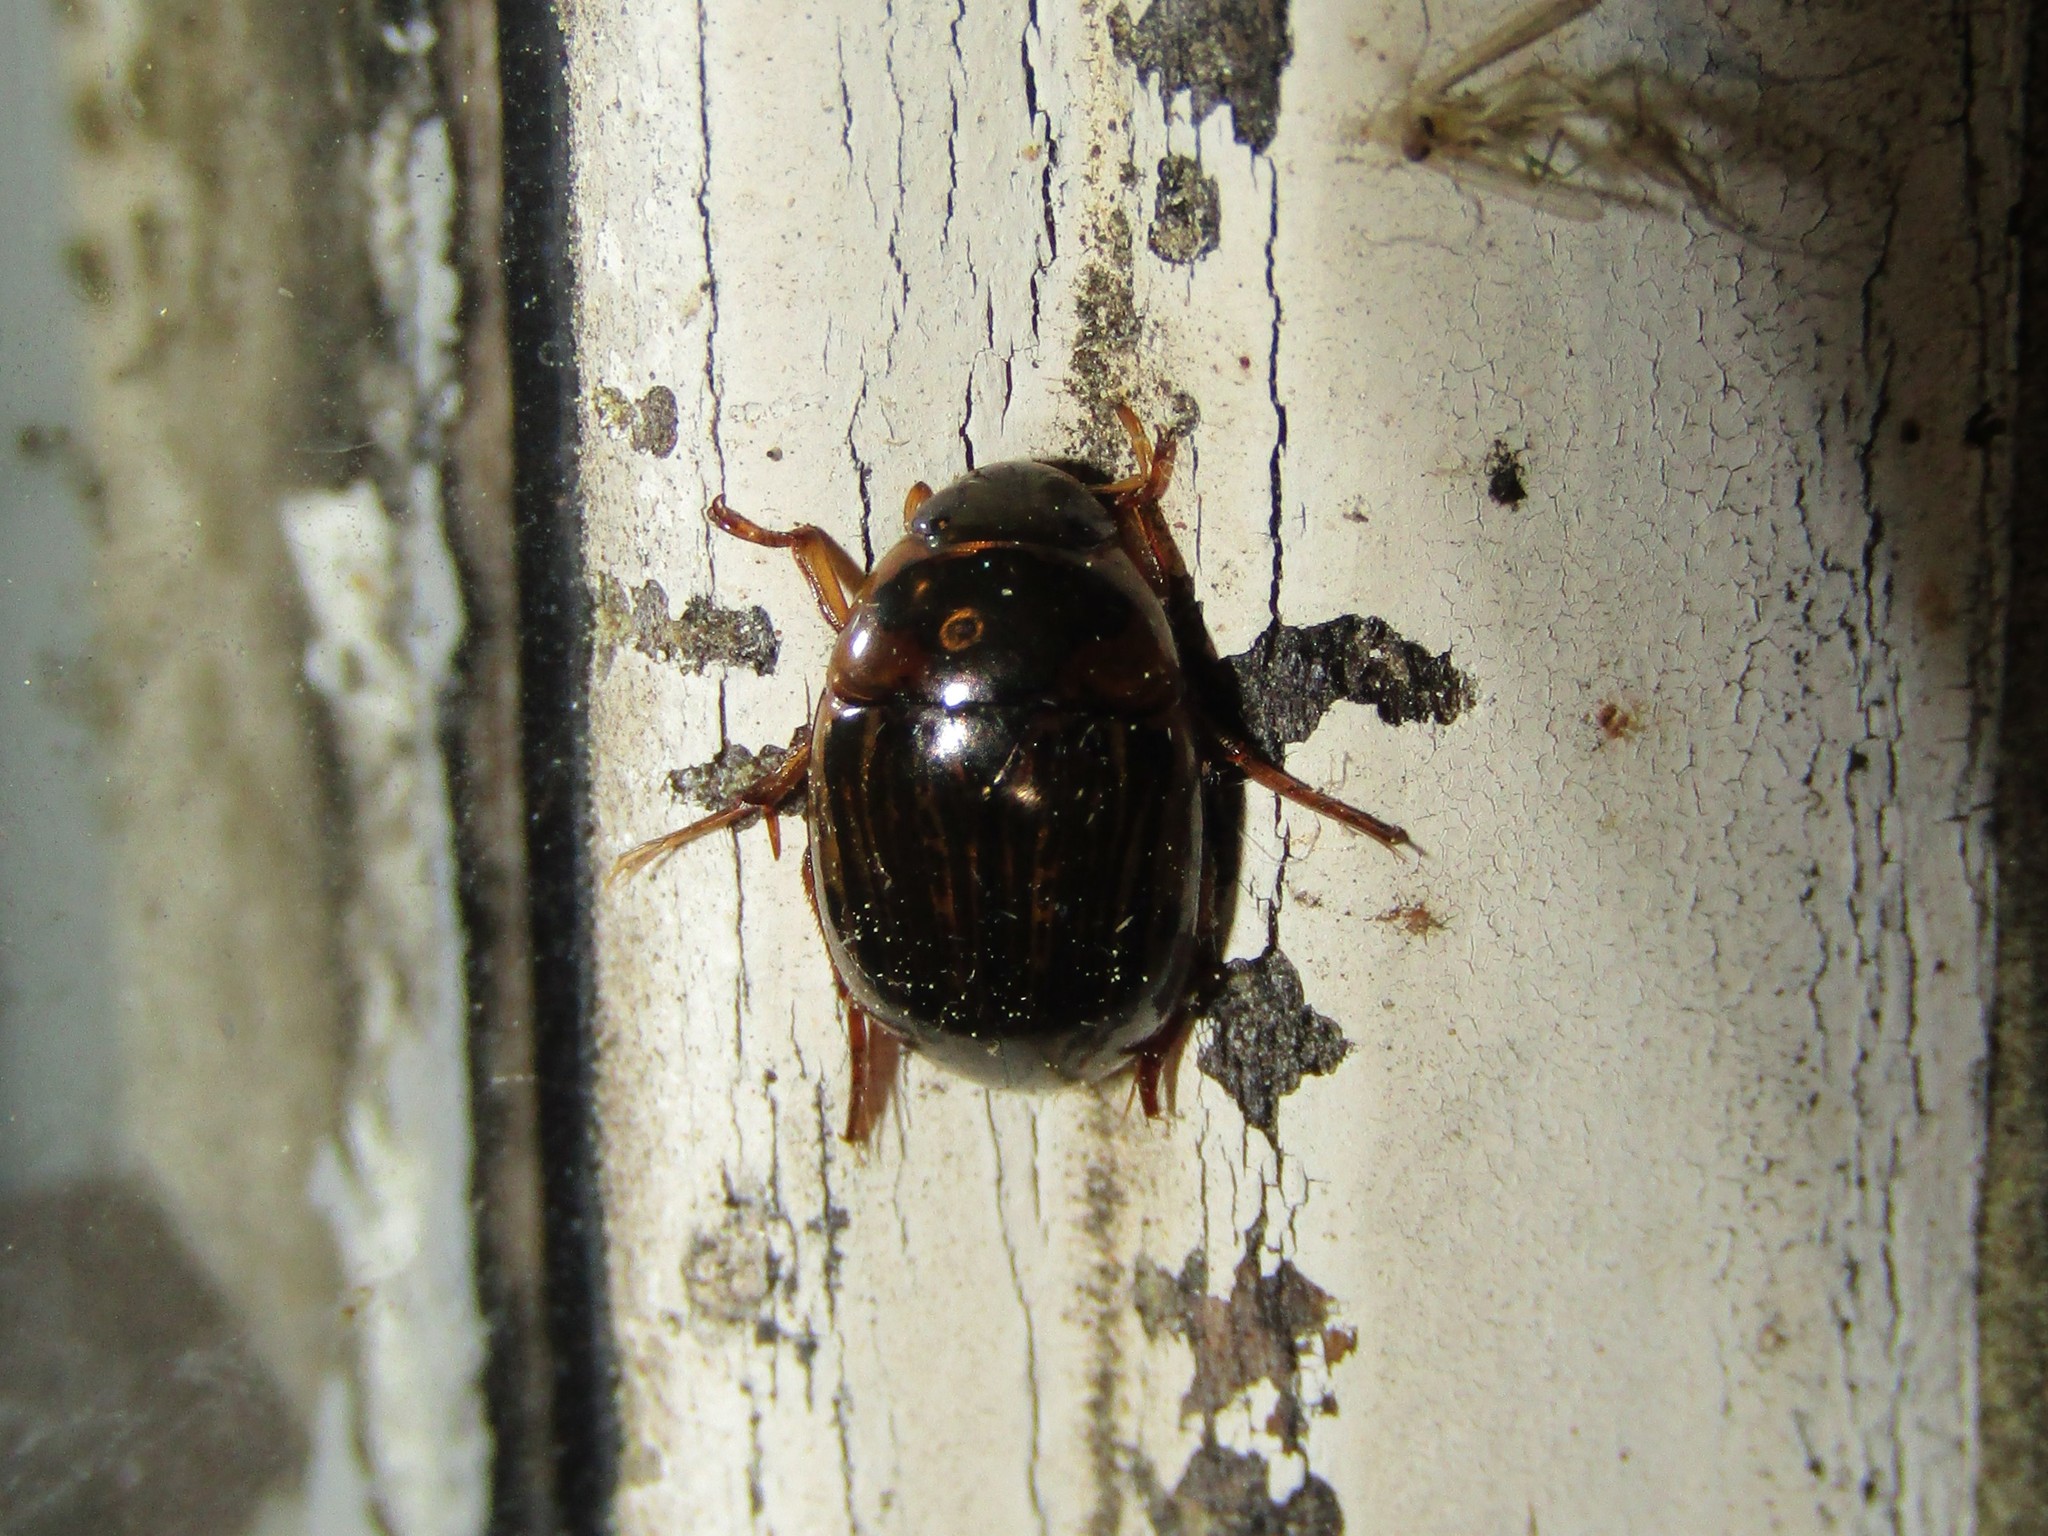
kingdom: Animalia
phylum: Arthropoda
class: Insecta
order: Coleoptera
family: Hydrophilidae
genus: Tropisternus
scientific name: Tropisternus collaris
